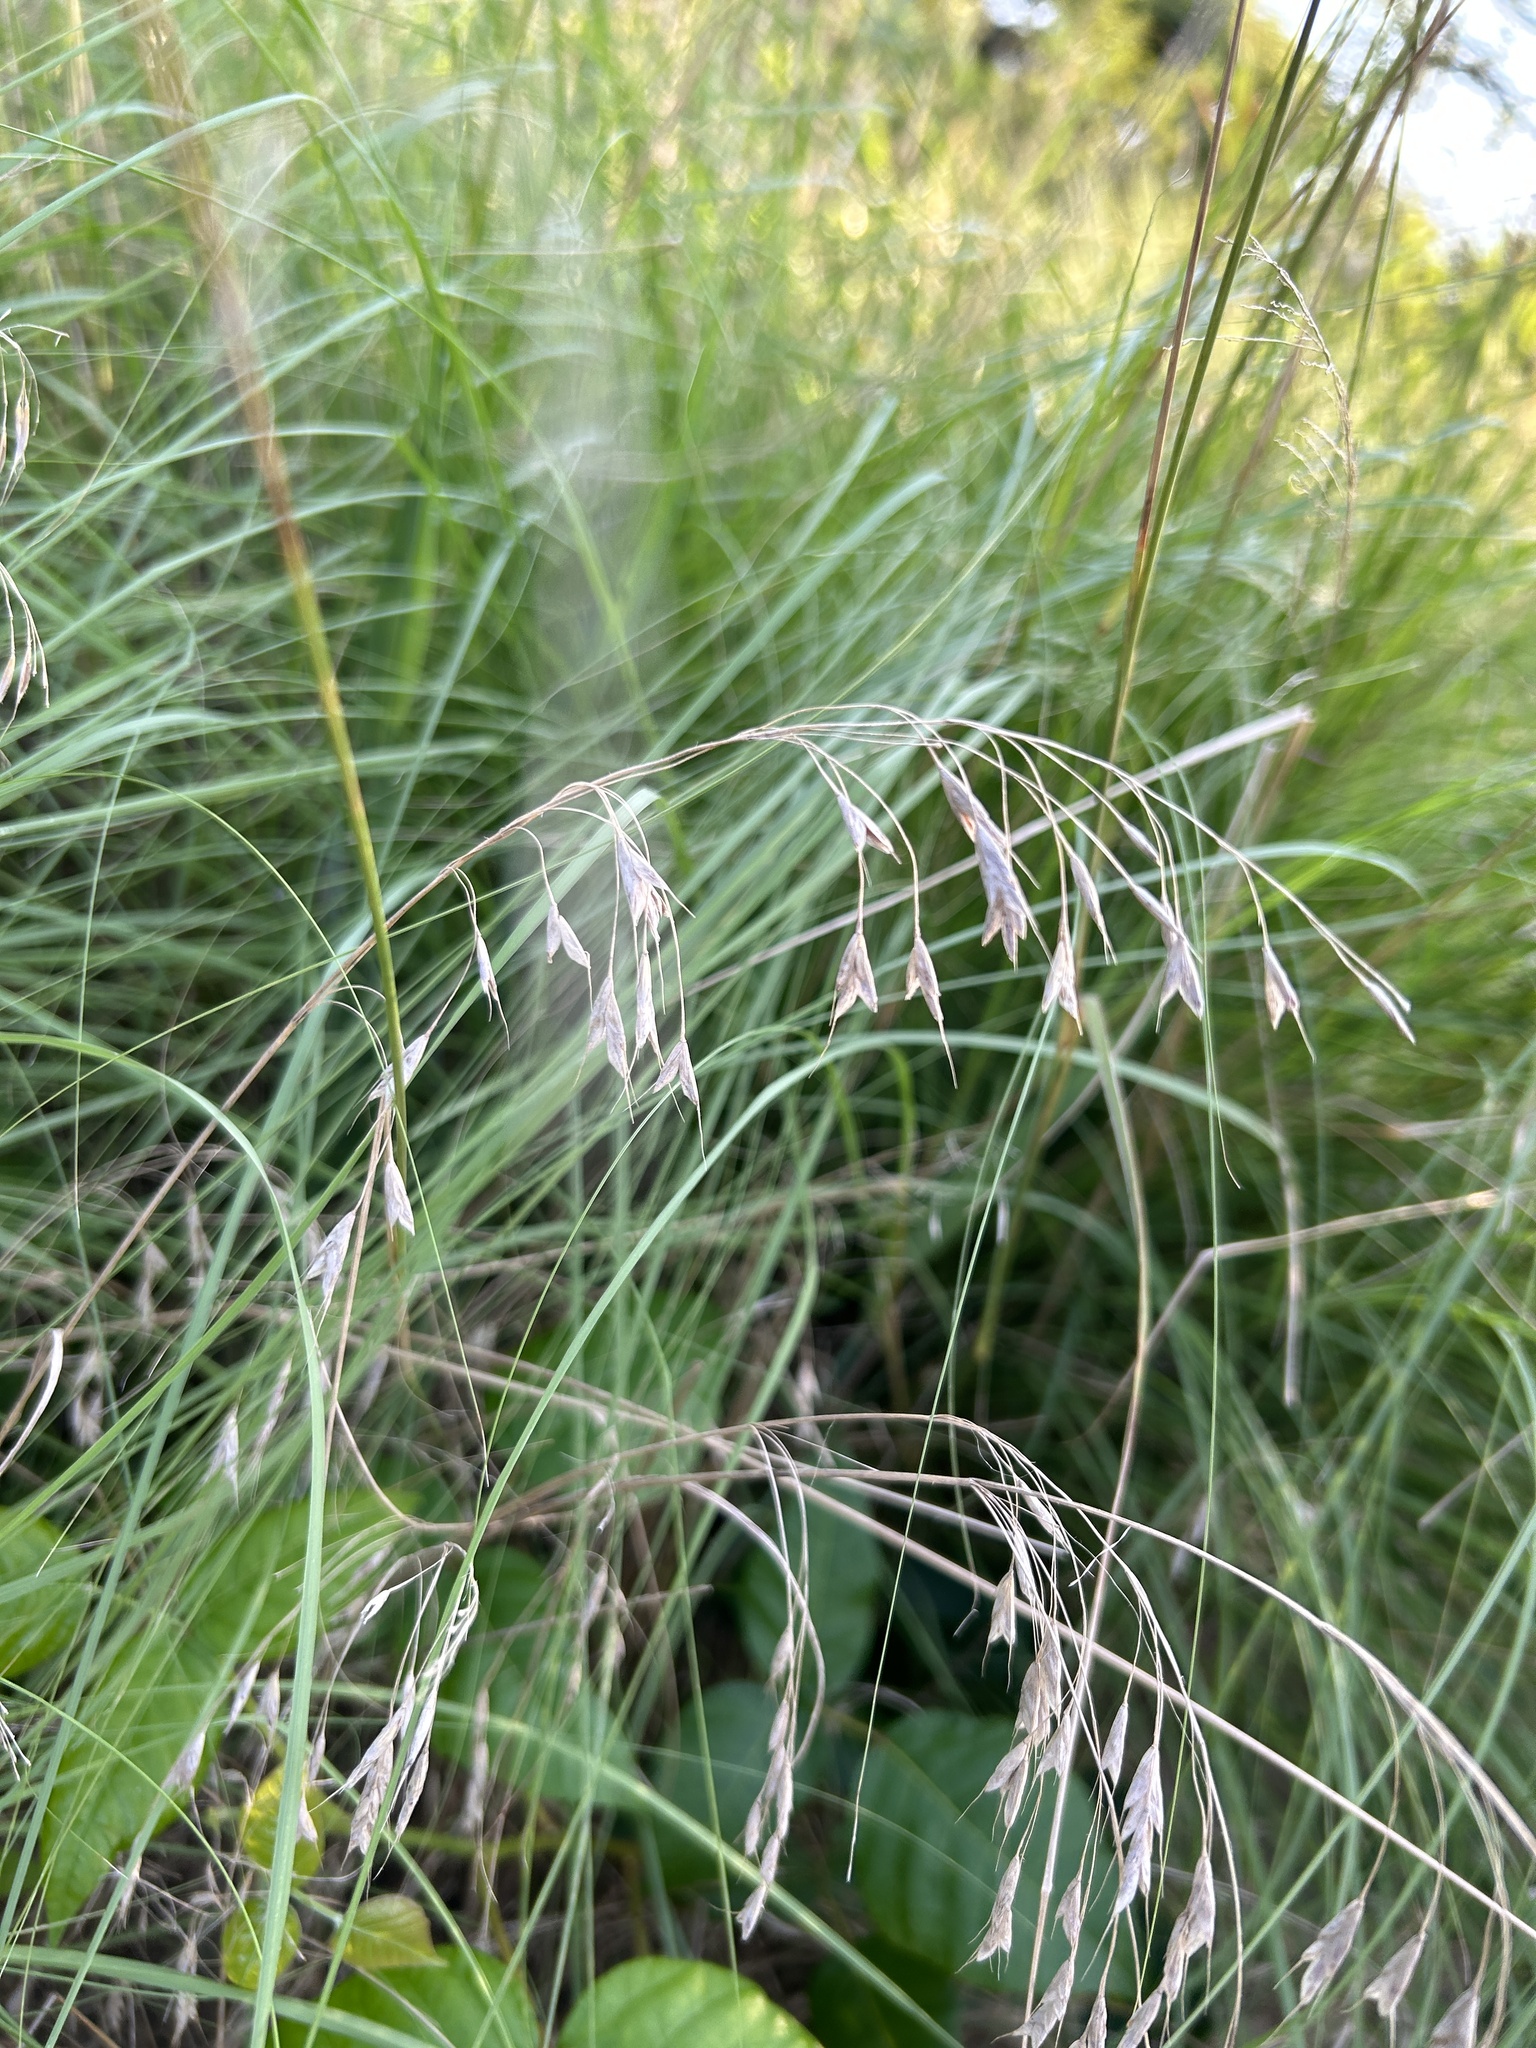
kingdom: Plantae
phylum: Tracheophyta
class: Liliopsida
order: Poales
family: Poaceae
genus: Bromus
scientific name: Bromus japonicus
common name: Japanese brome
